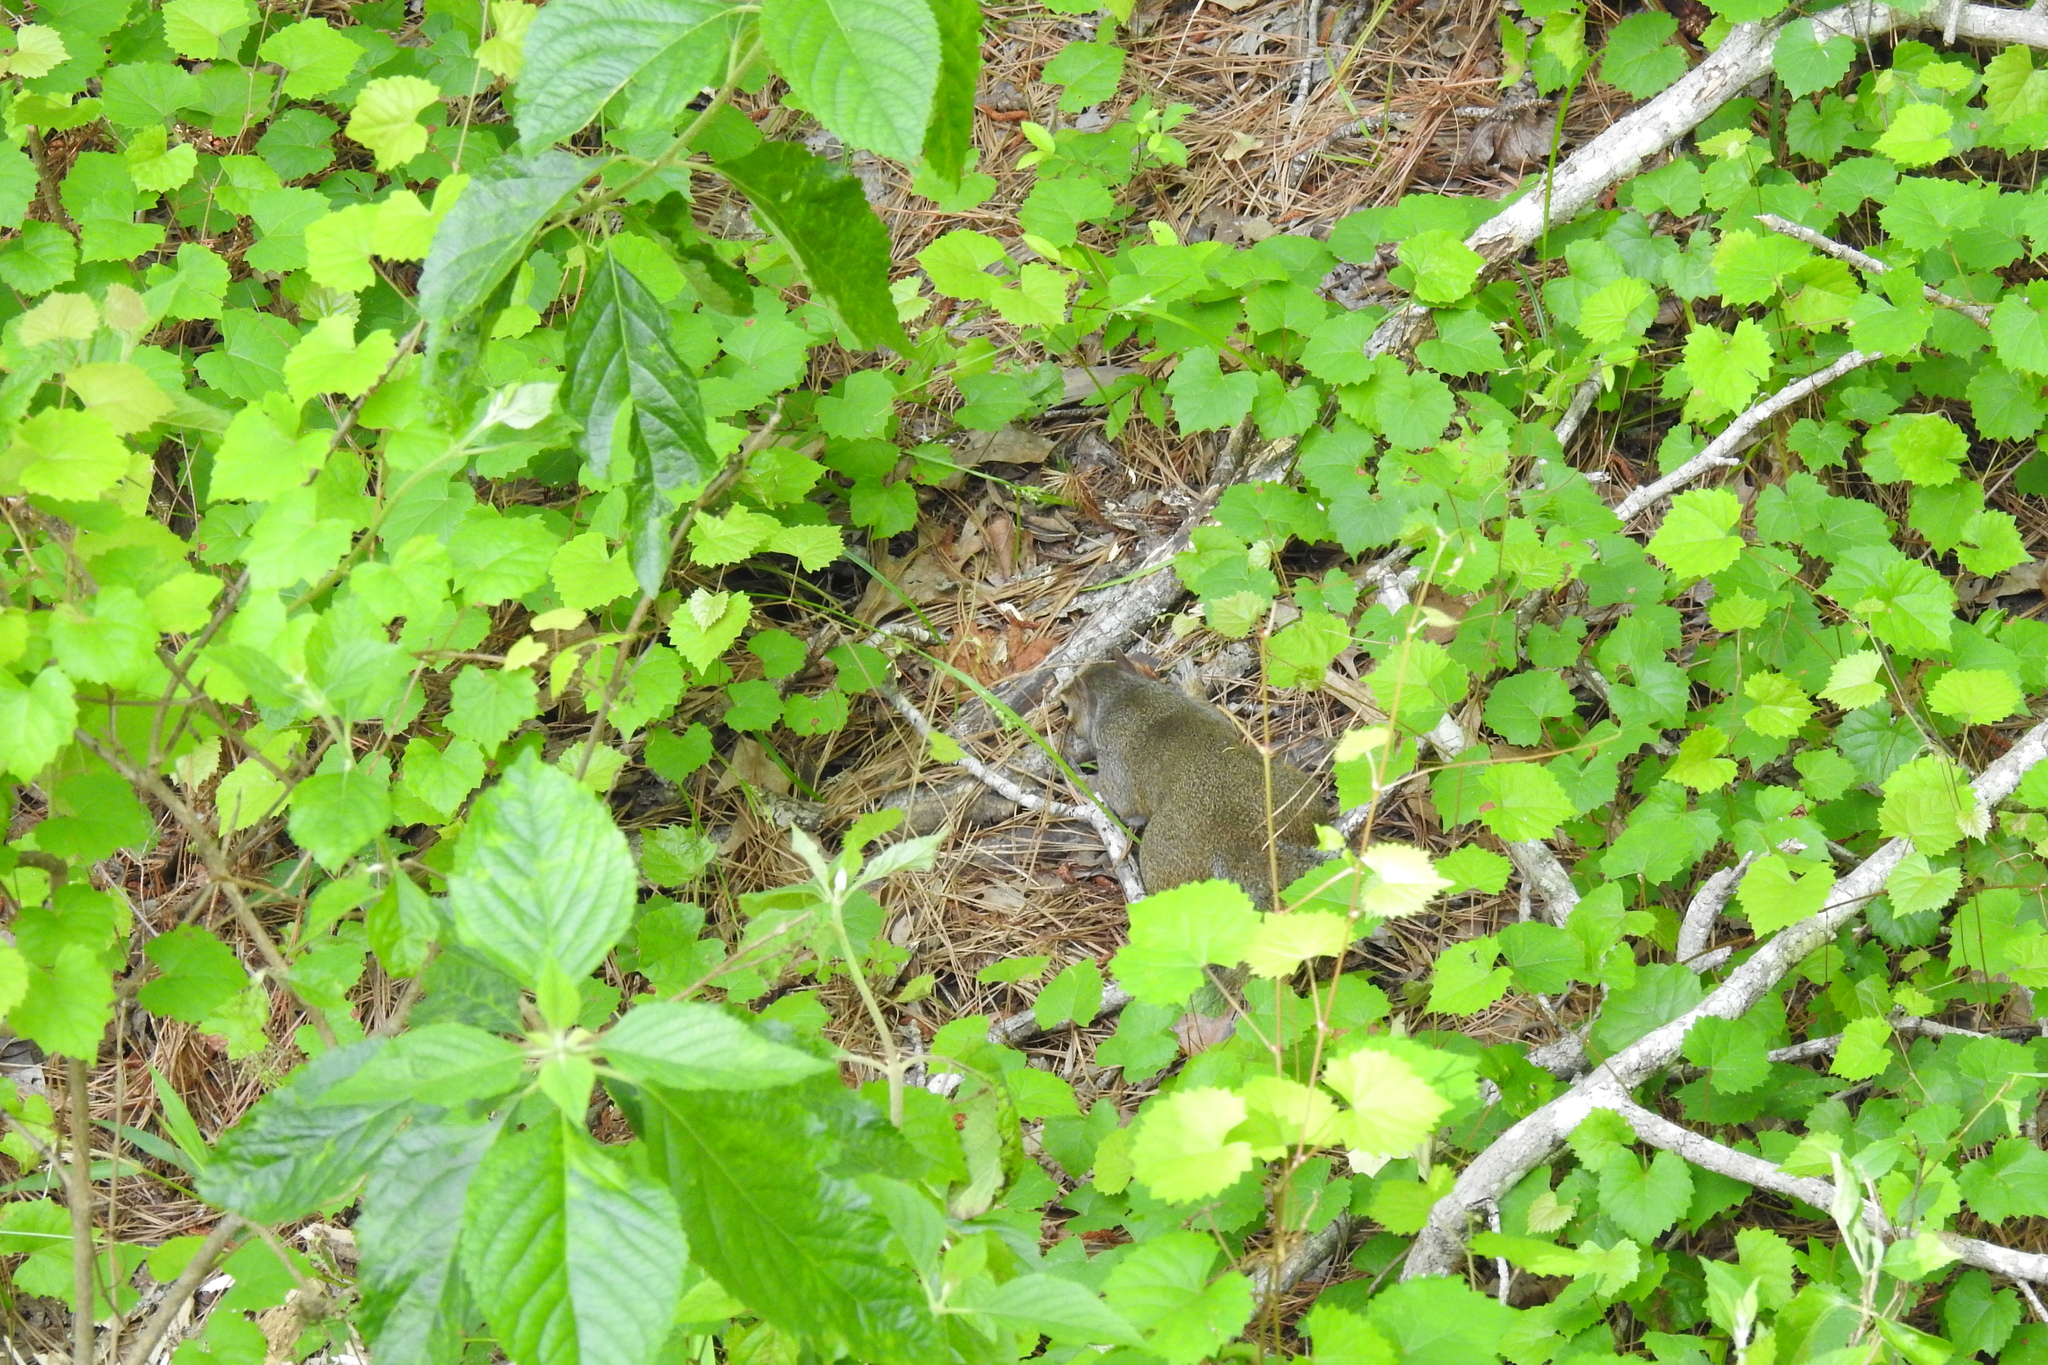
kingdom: Animalia
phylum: Chordata
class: Mammalia
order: Rodentia
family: Sciuridae
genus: Sciurus
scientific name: Sciurus carolinensis
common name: Eastern gray squirrel
